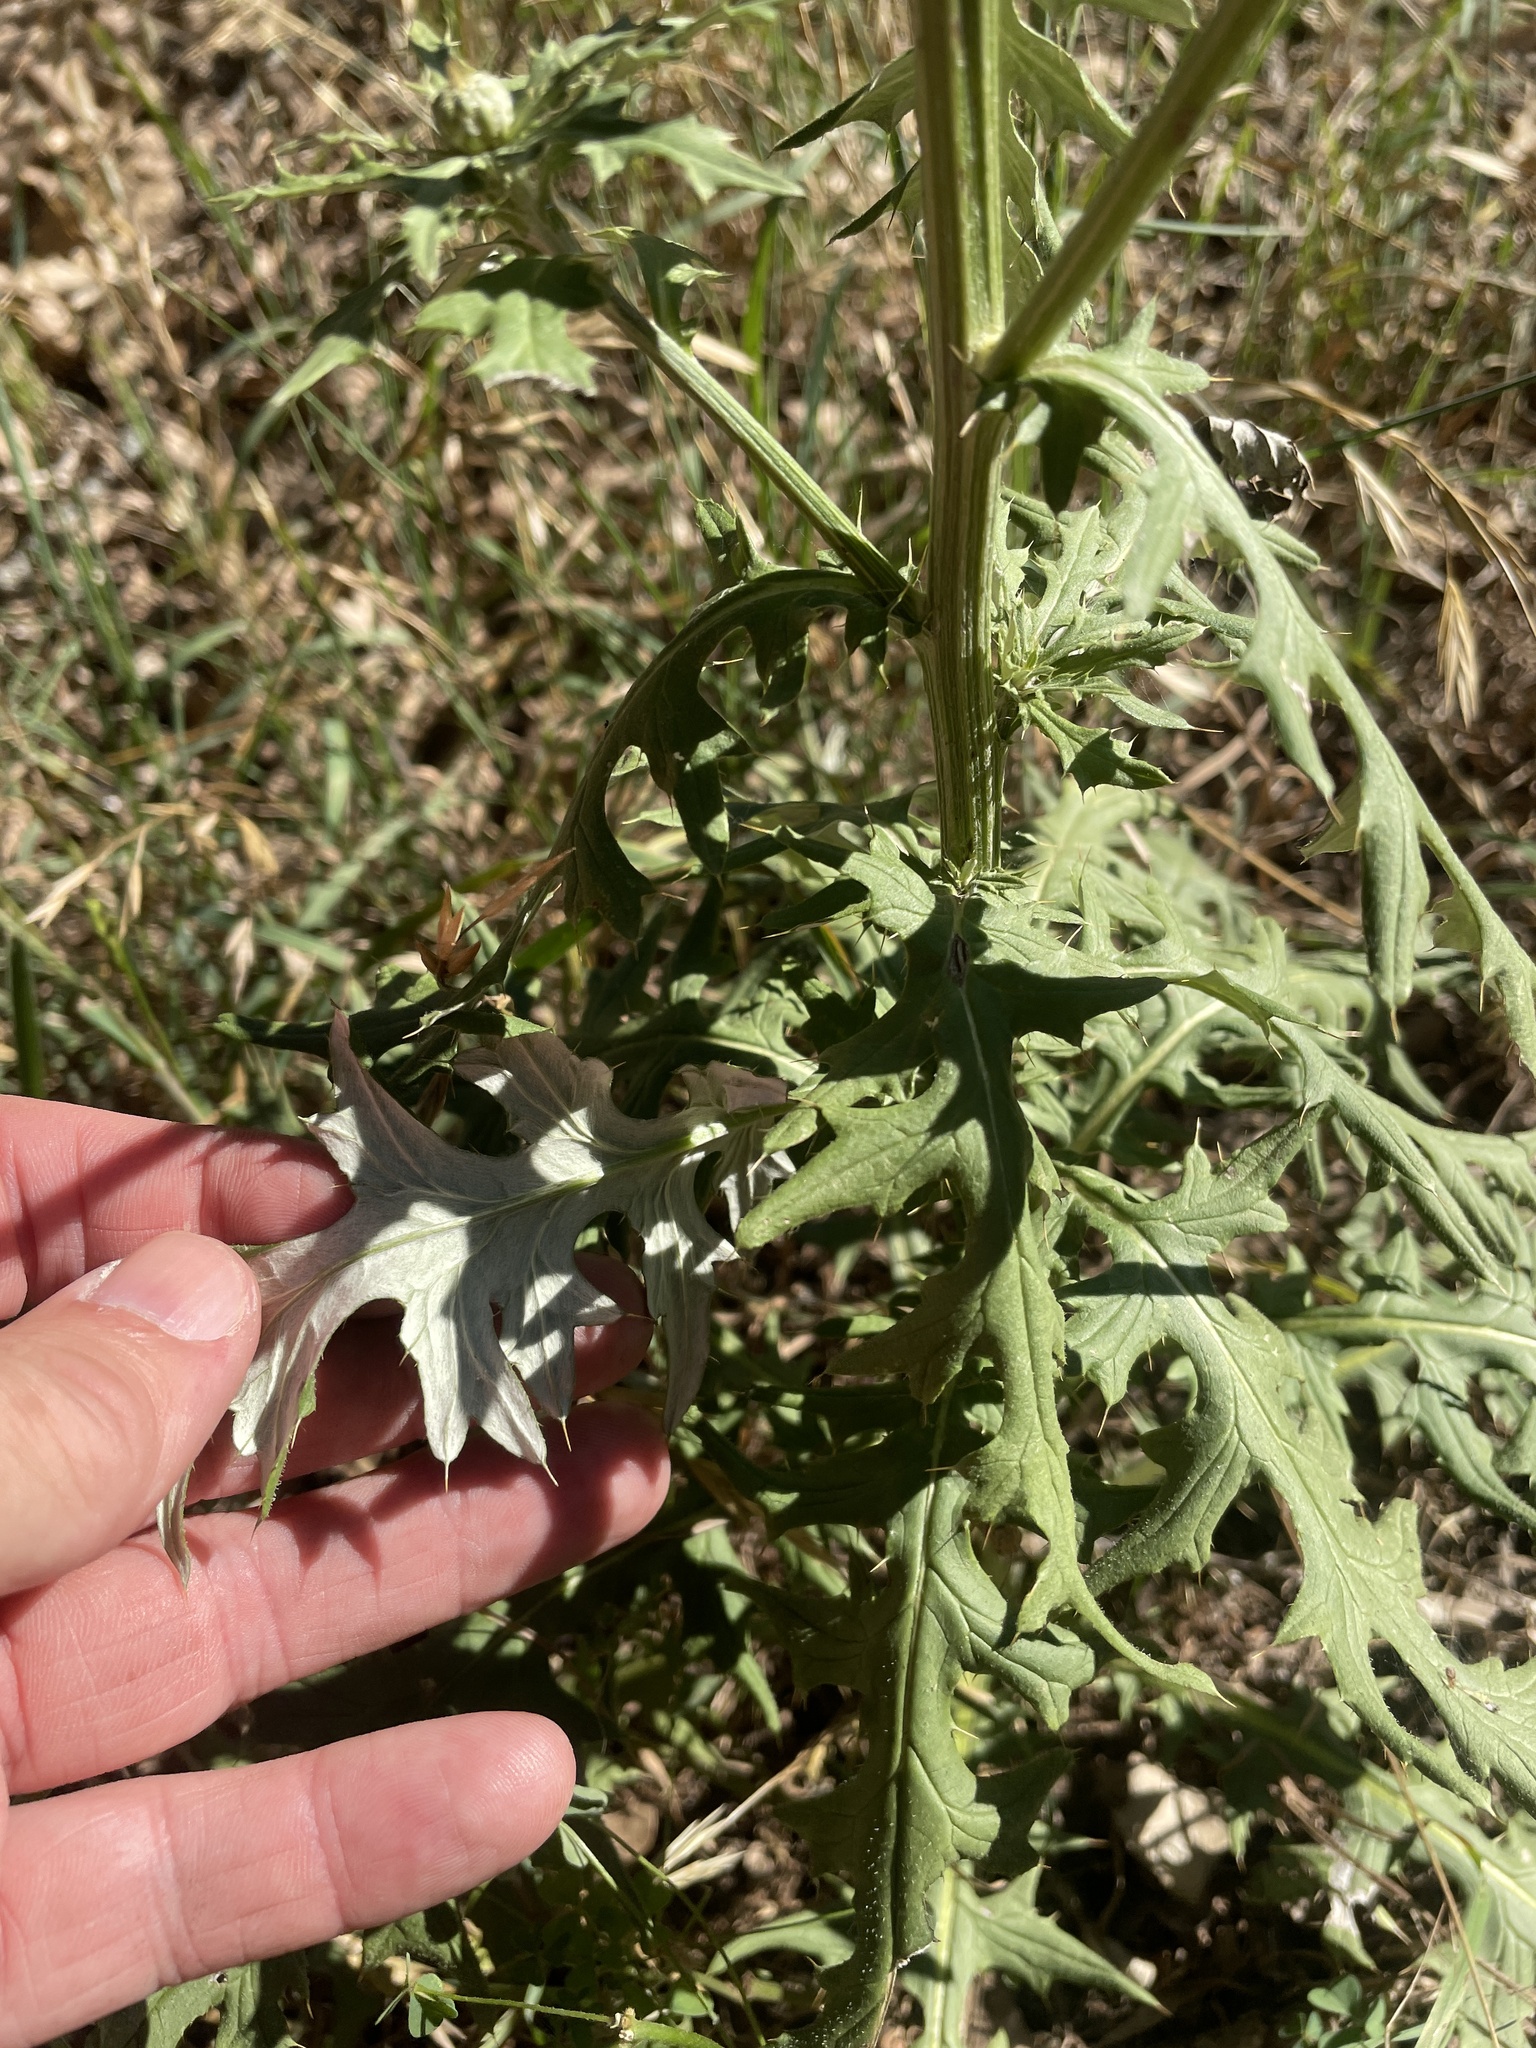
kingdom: Plantae
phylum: Tracheophyta
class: Magnoliopsida
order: Asterales
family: Asteraceae
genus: Cirsium
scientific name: Cirsium engelmannii
